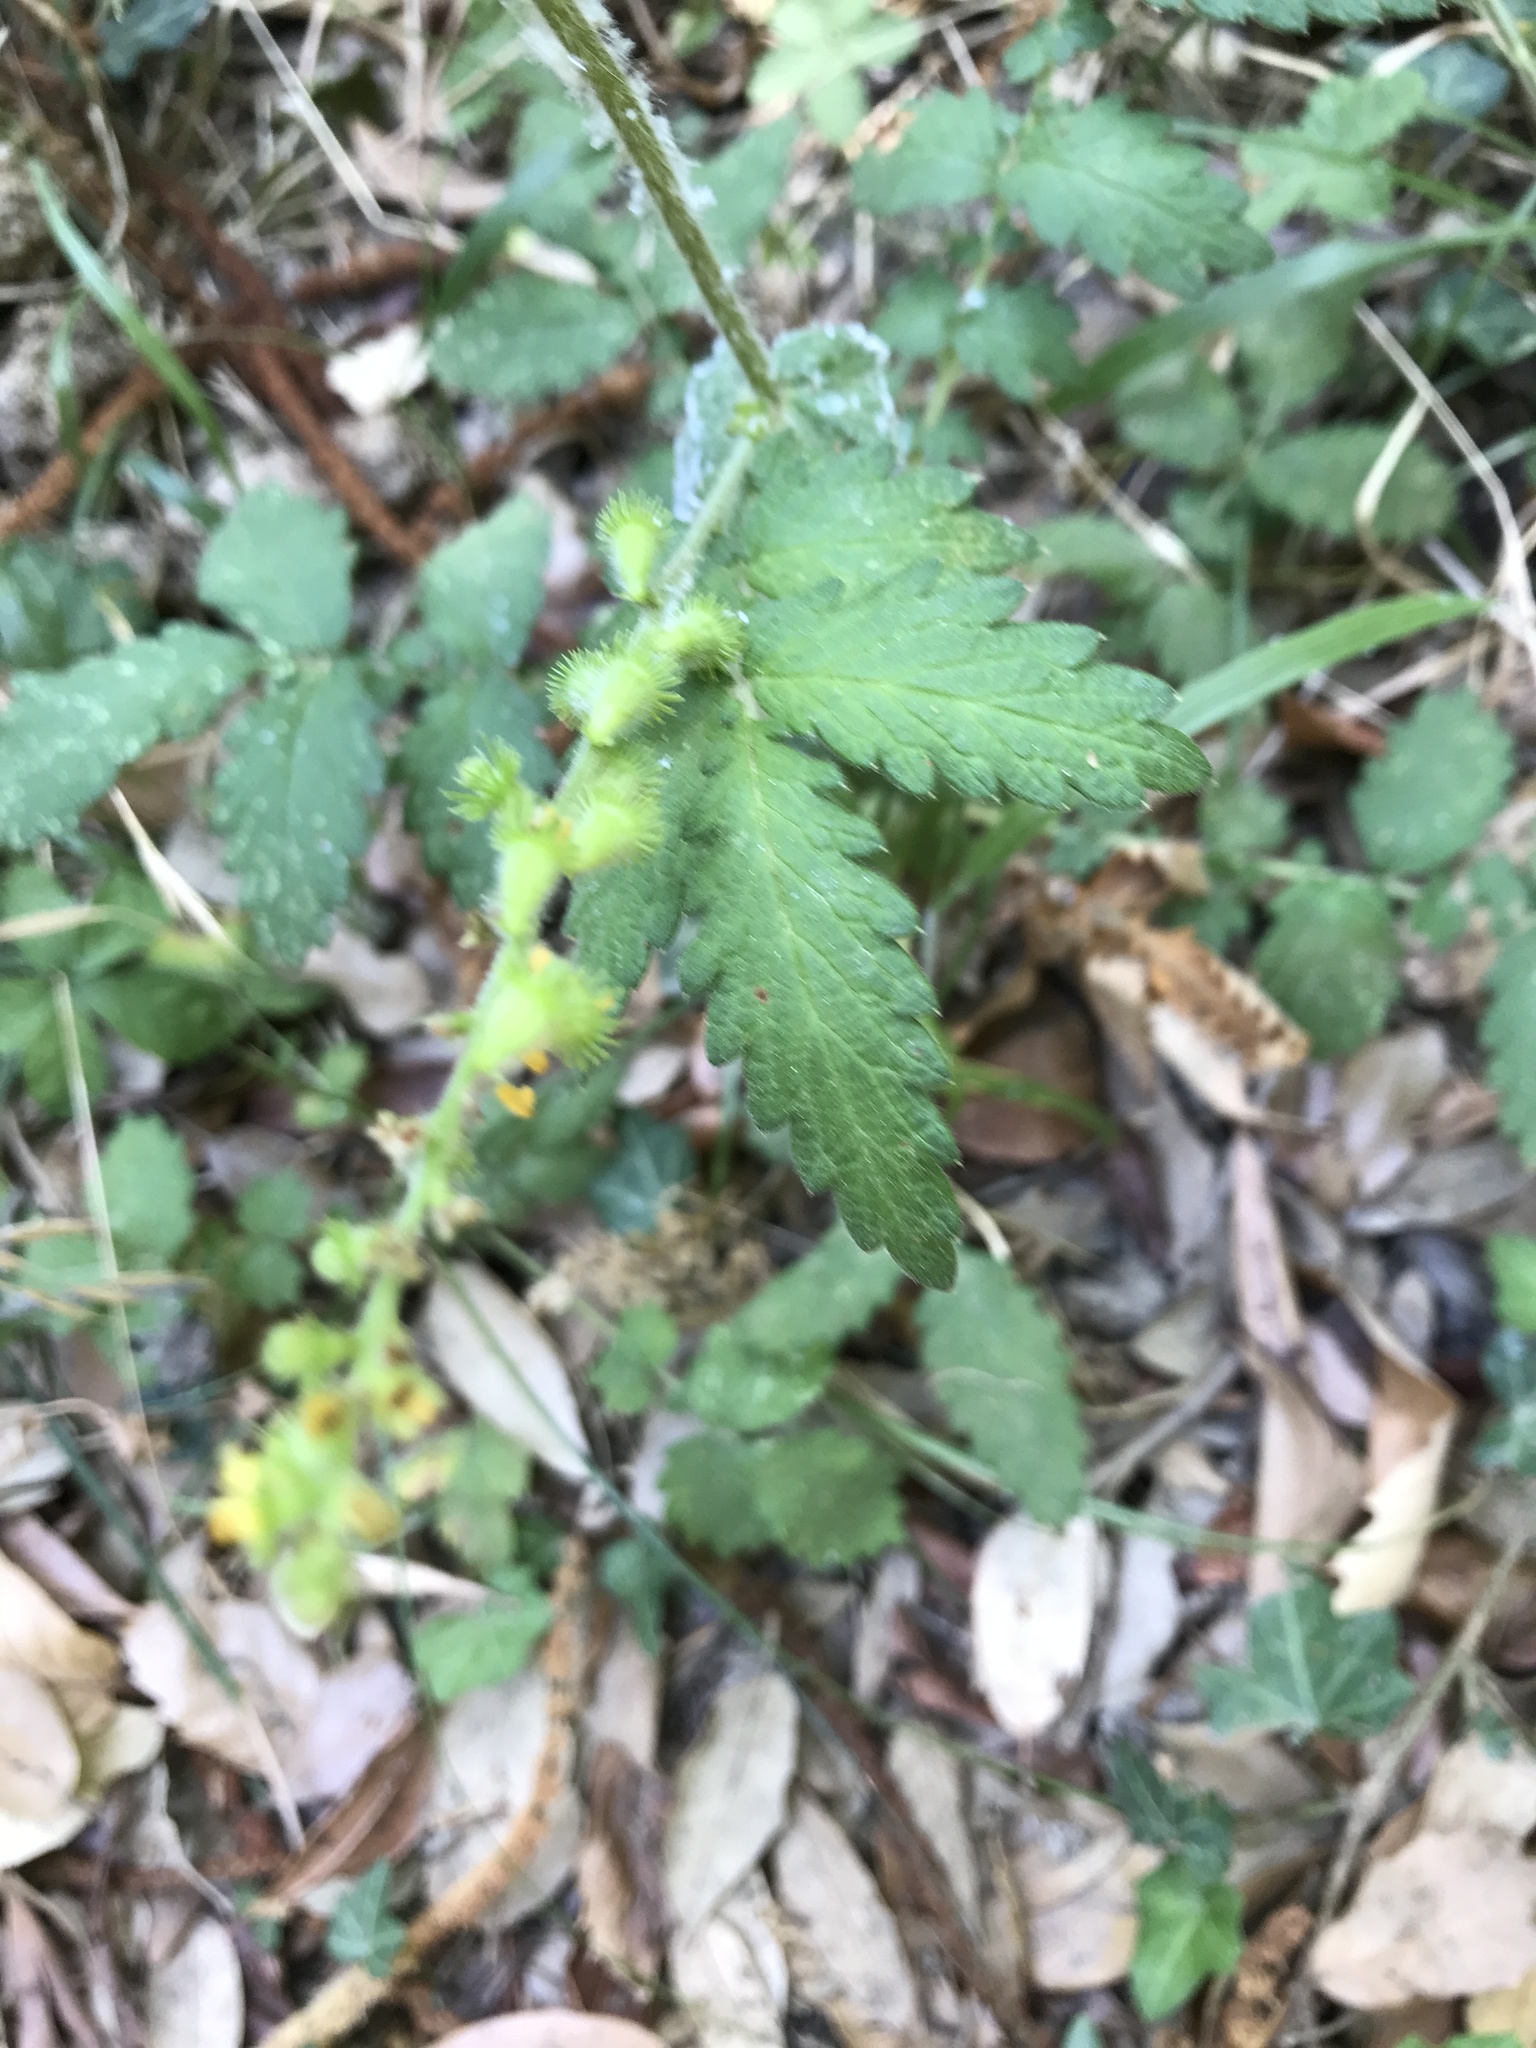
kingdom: Plantae
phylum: Tracheophyta
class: Magnoliopsida
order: Rosales
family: Rosaceae
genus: Agrimonia
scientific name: Agrimonia eupatoria
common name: Agrimony
